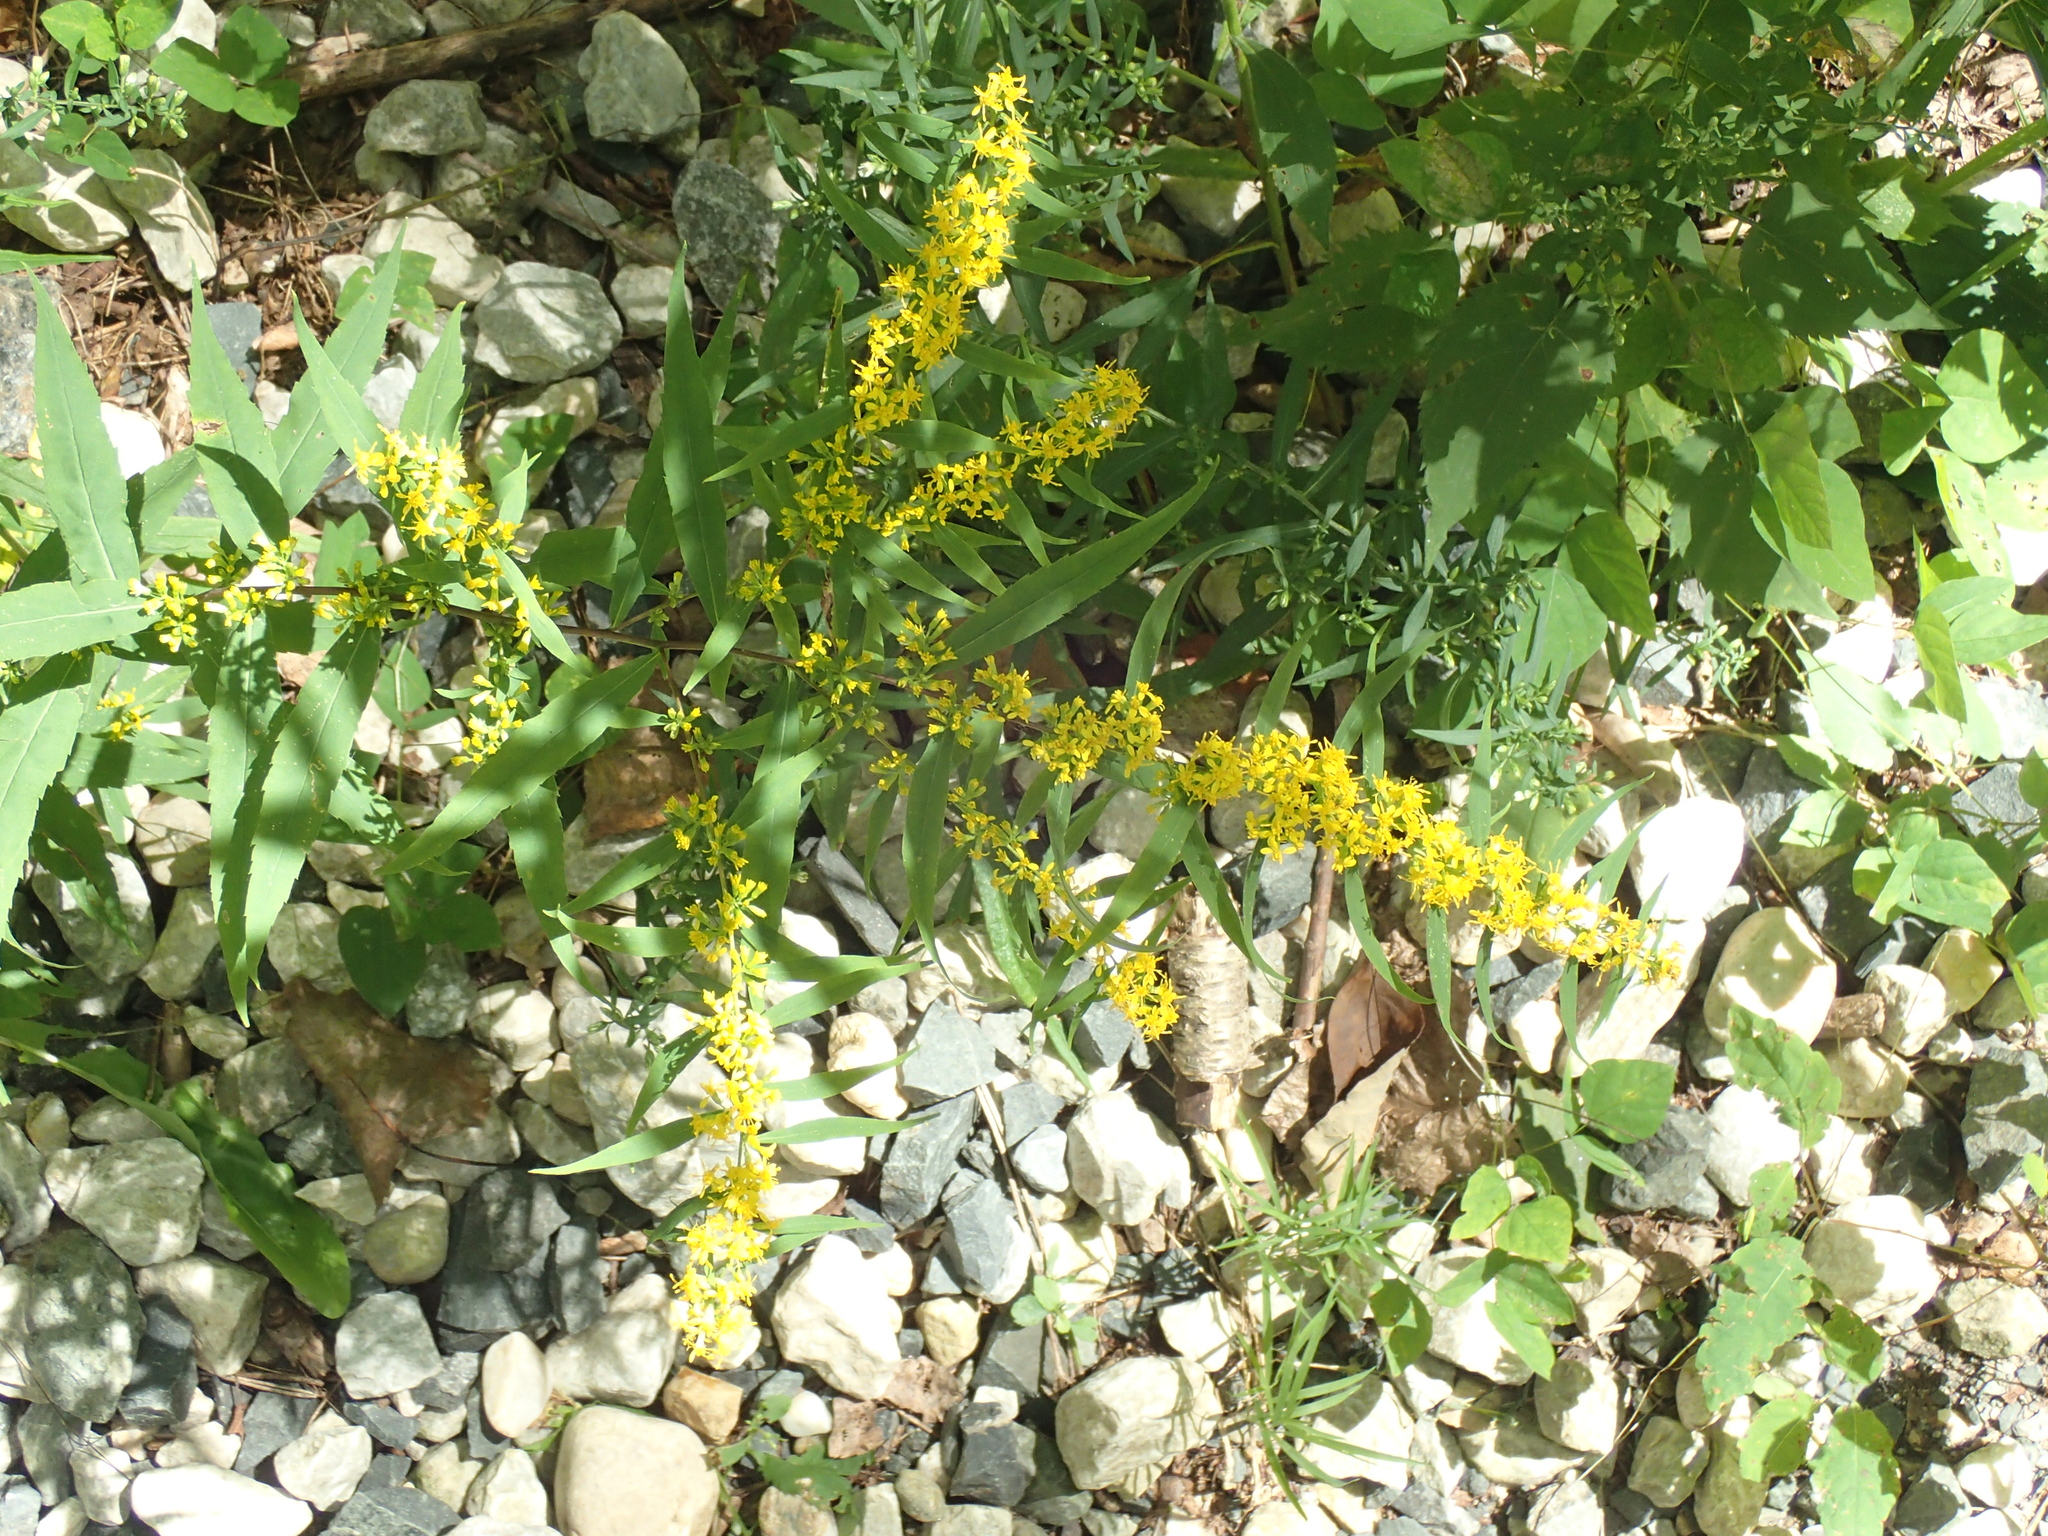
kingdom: Plantae
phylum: Tracheophyta
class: Magnoliopsida
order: Asterales
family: Asteraceae
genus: Solidago
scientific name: Solidago caesia
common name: Woodland goldenrod
